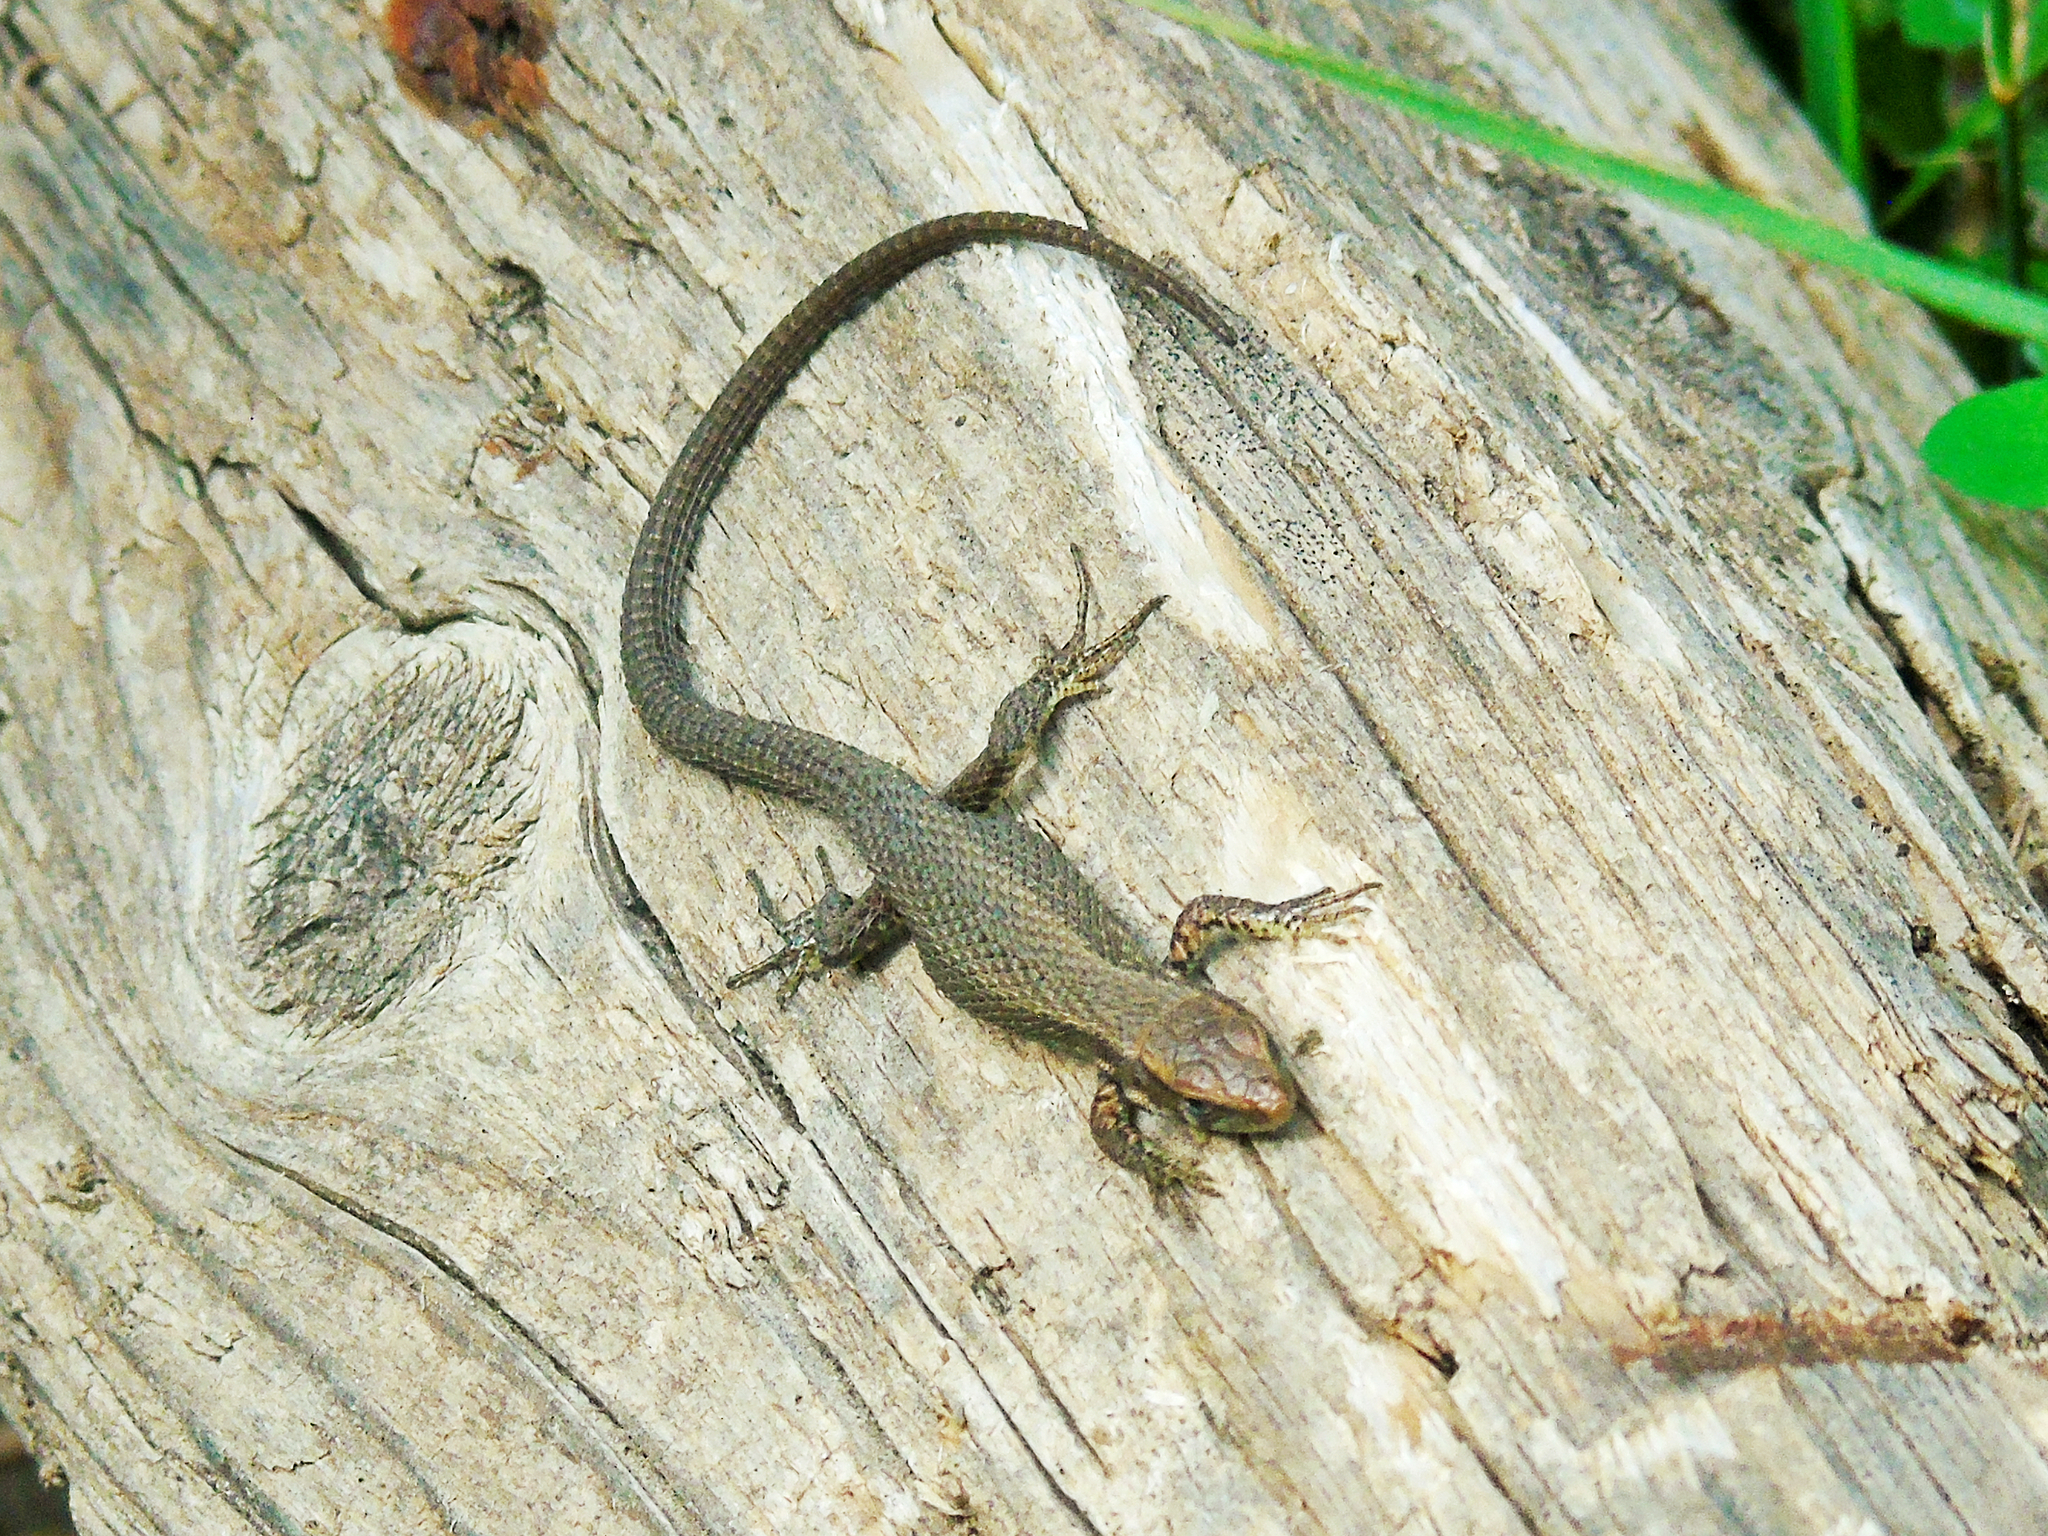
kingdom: Animalia
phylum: Chordata
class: Squamata
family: Lacertidae
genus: Algyroides
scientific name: Algyroides moreoticus
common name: Greek algyroides
